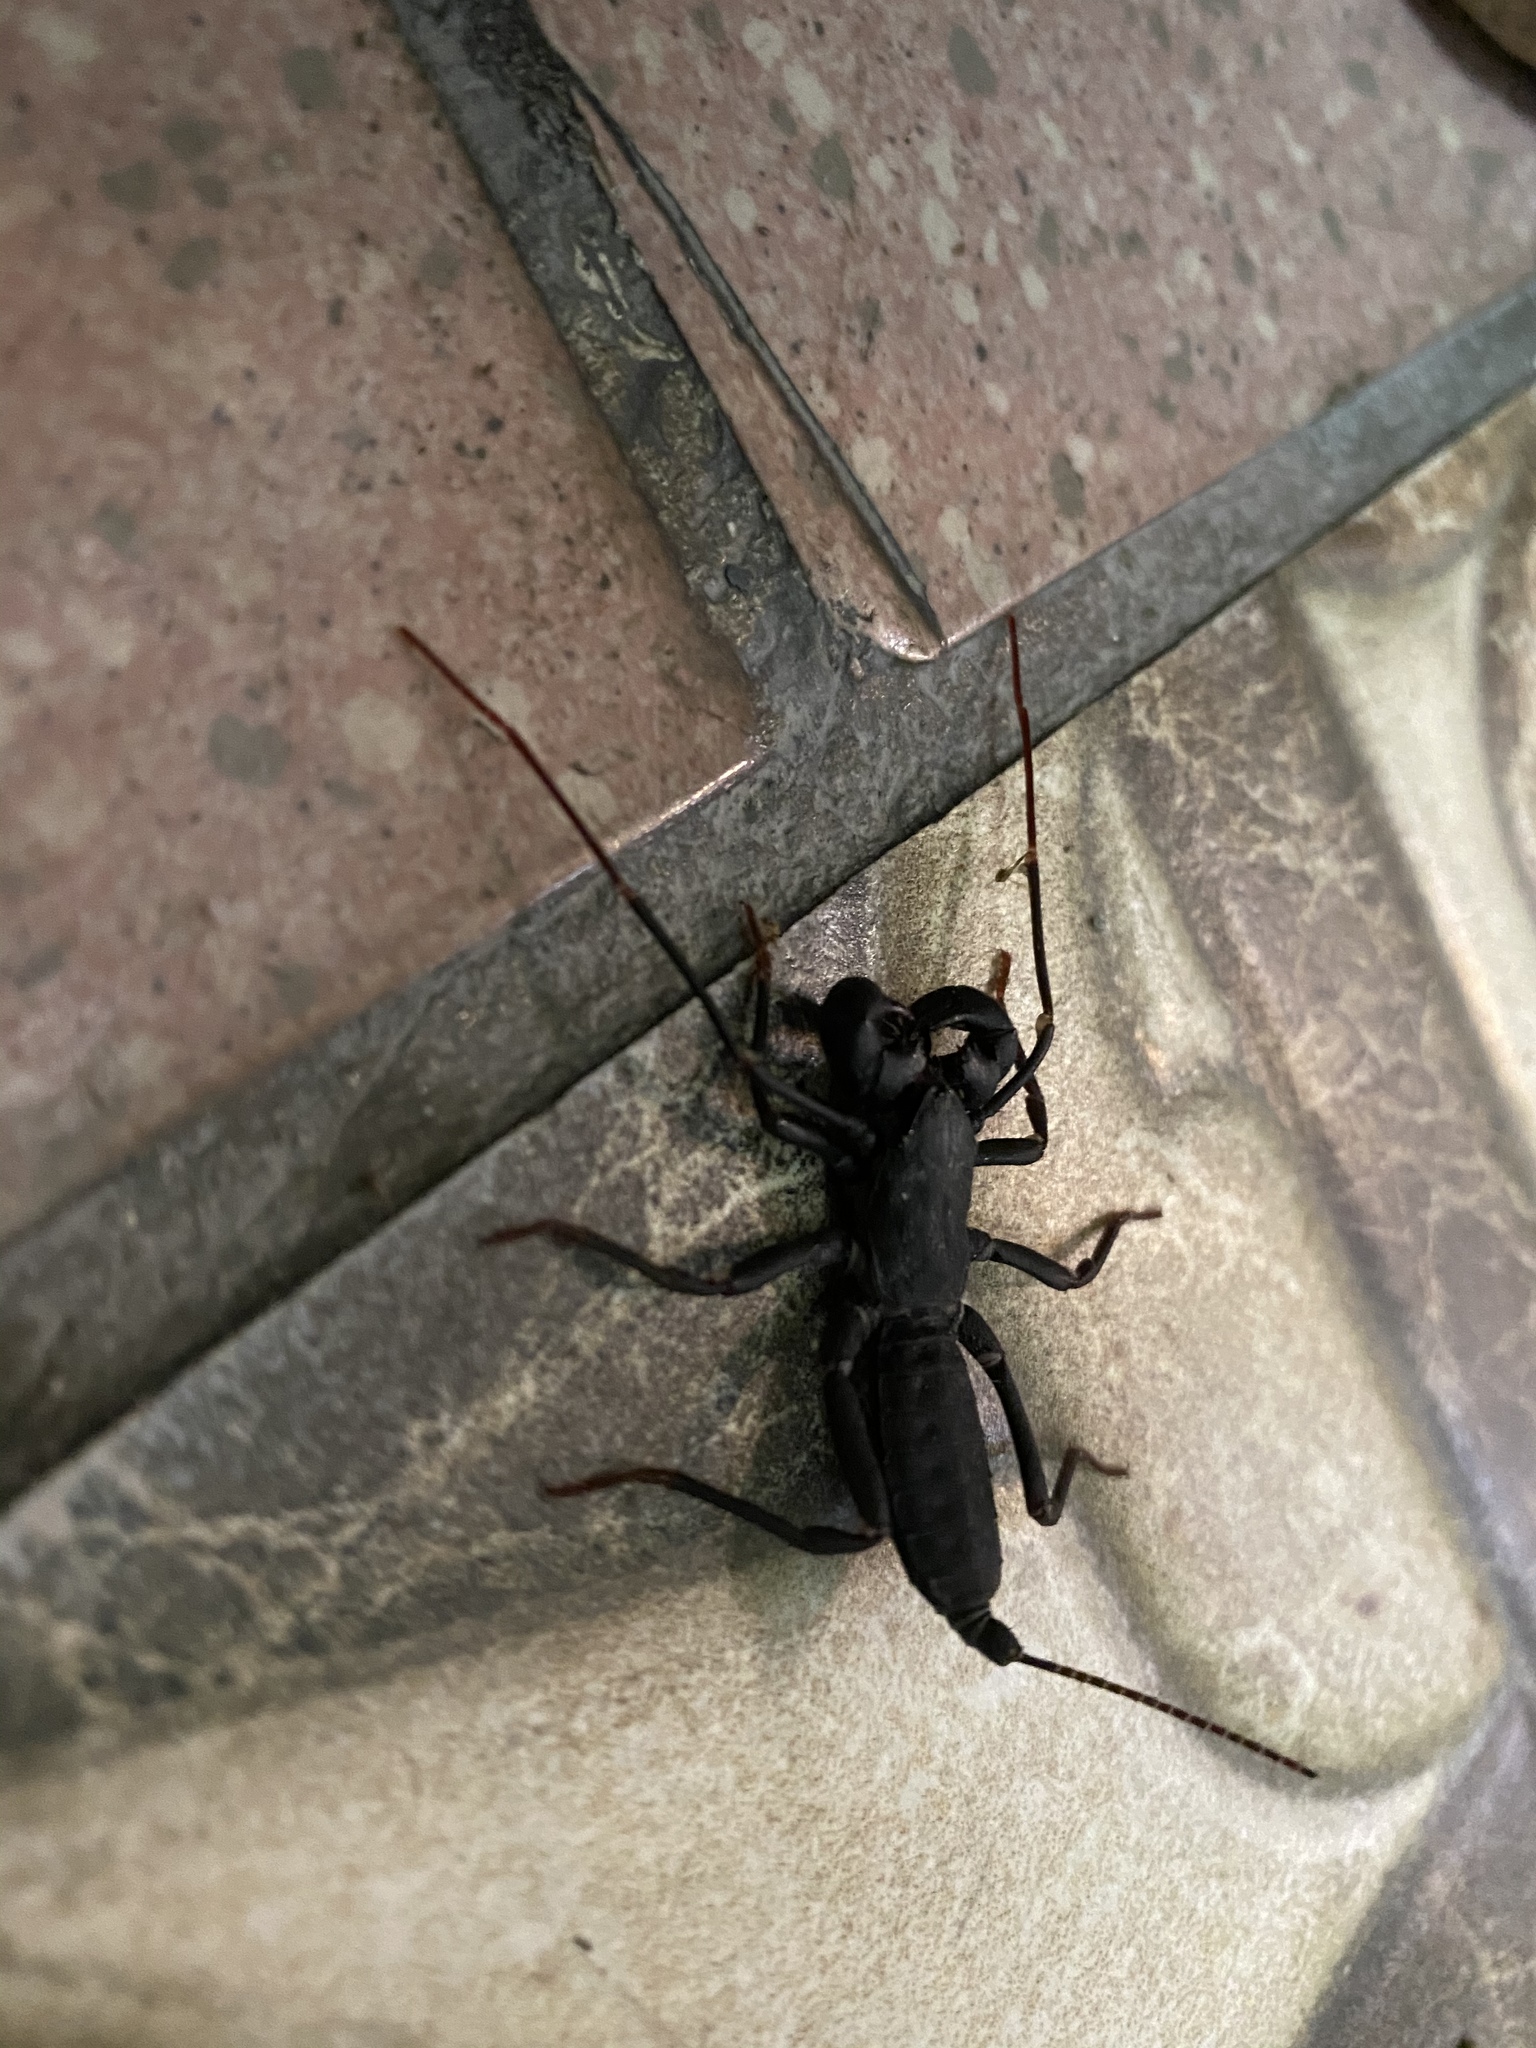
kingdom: Animalia
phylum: Arthropoda
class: Arachnida
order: Uropygi
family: Thelyphonidae
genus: Typopeltis
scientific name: Typopeltis crucifer
